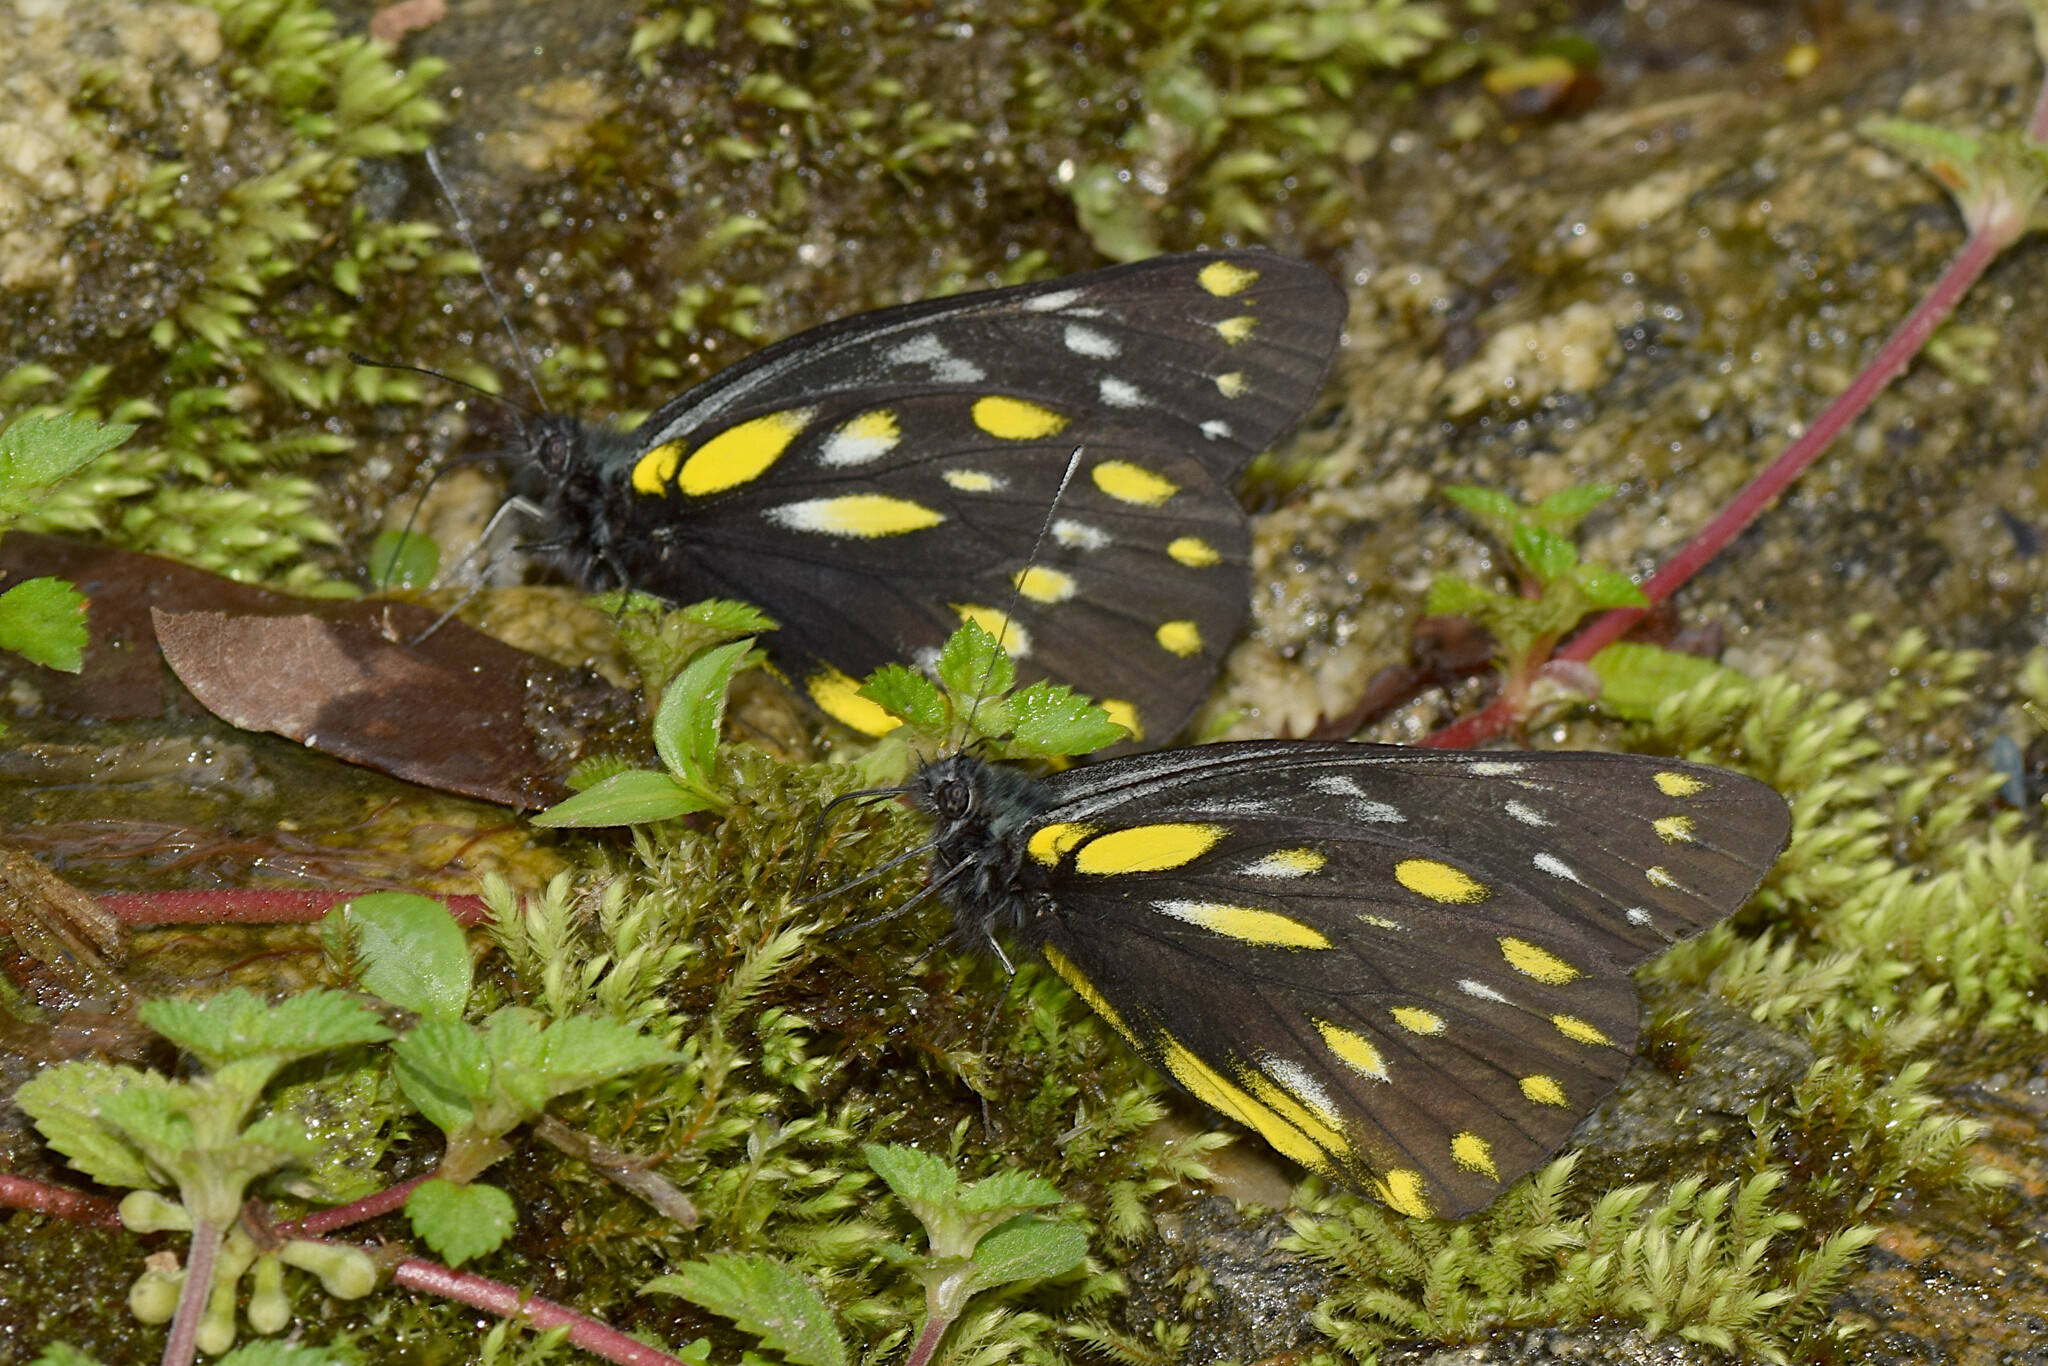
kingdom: Animalia
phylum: Arthropoda
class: Insecta
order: Lepidoptera
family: Pieridae
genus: Delias
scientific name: Delias berinda
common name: Dark jezebel
